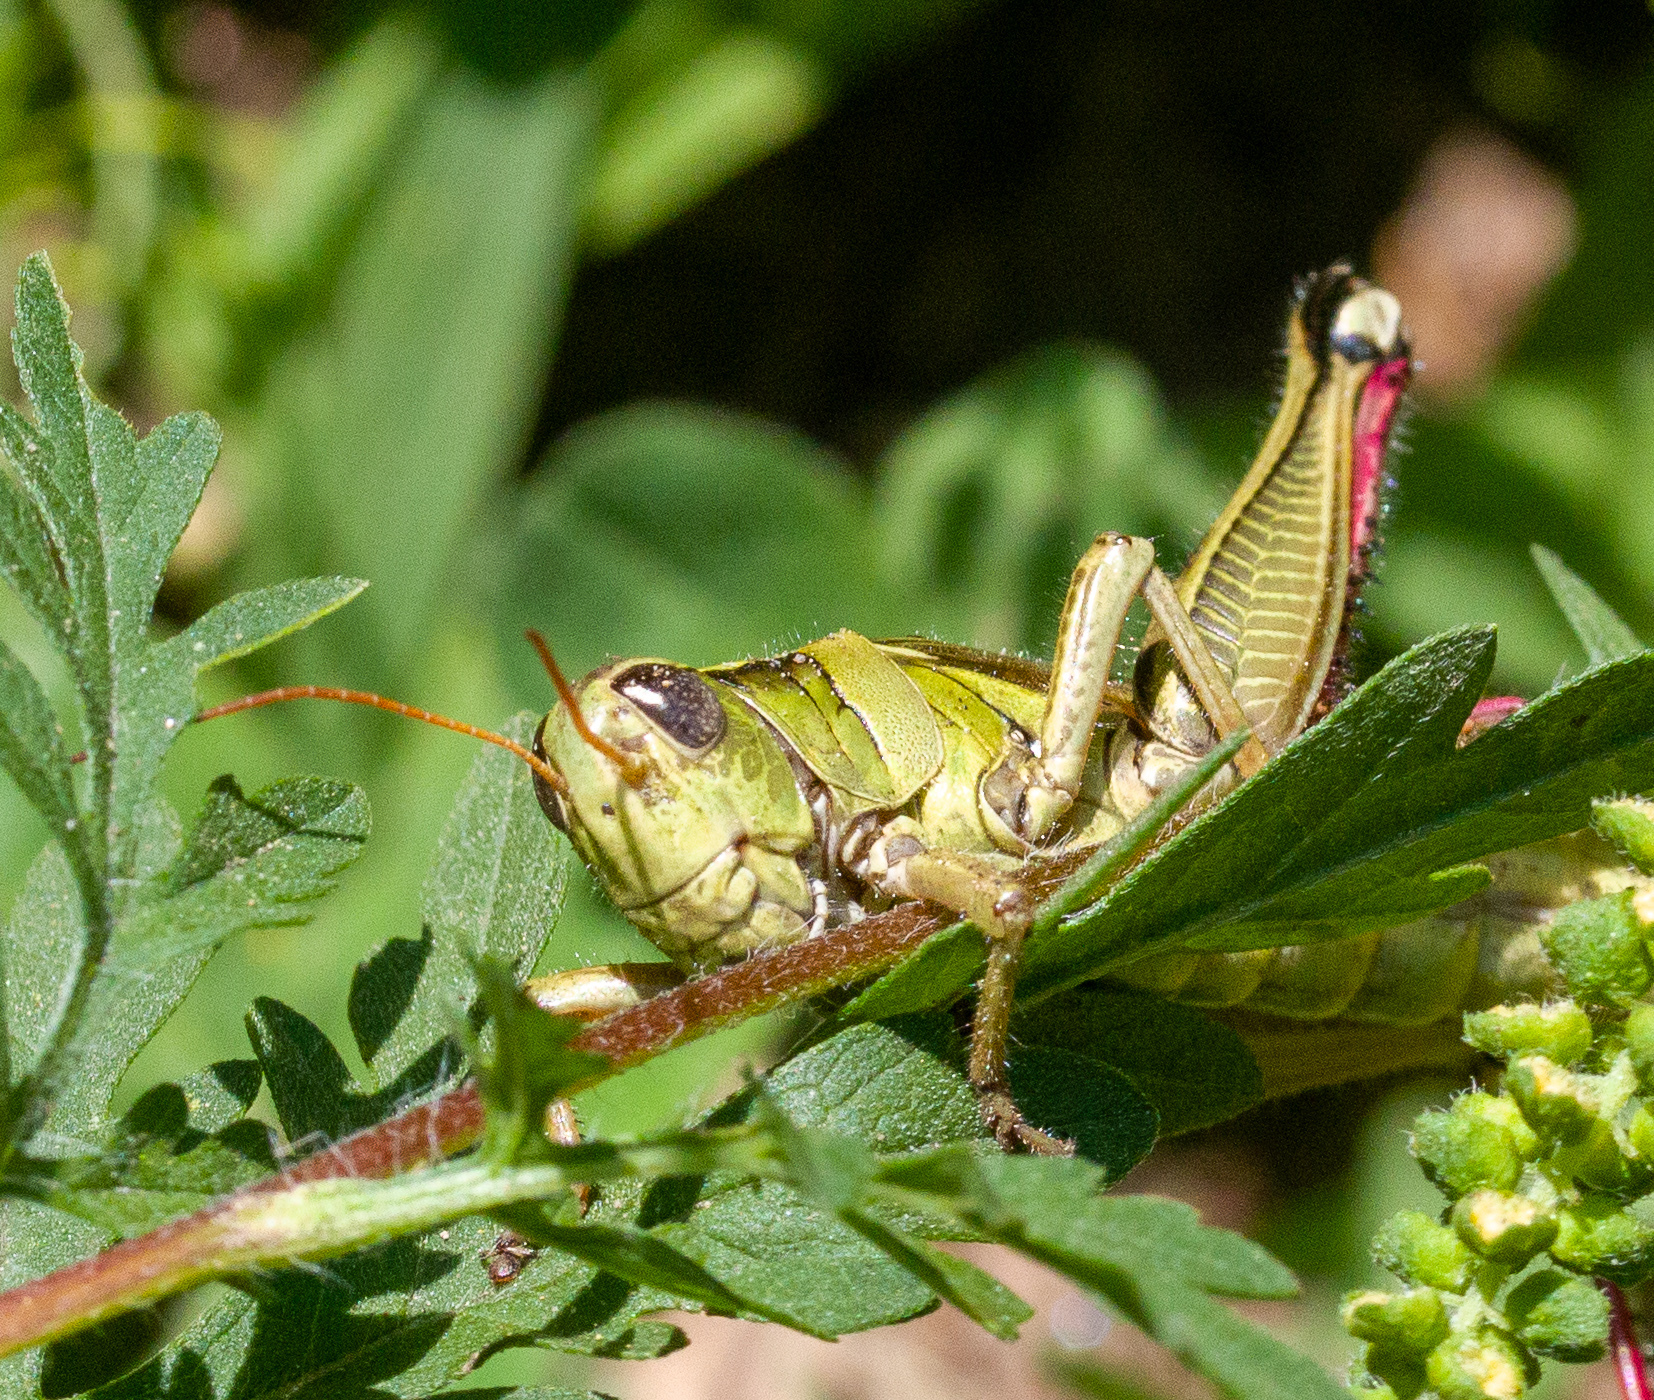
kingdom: Animalia
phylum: Arthropoda
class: Insecta
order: Orthoptera
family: Acrididae
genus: Melanoplus
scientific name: Melanoplus bivittatus
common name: Two-striped grasshopper
